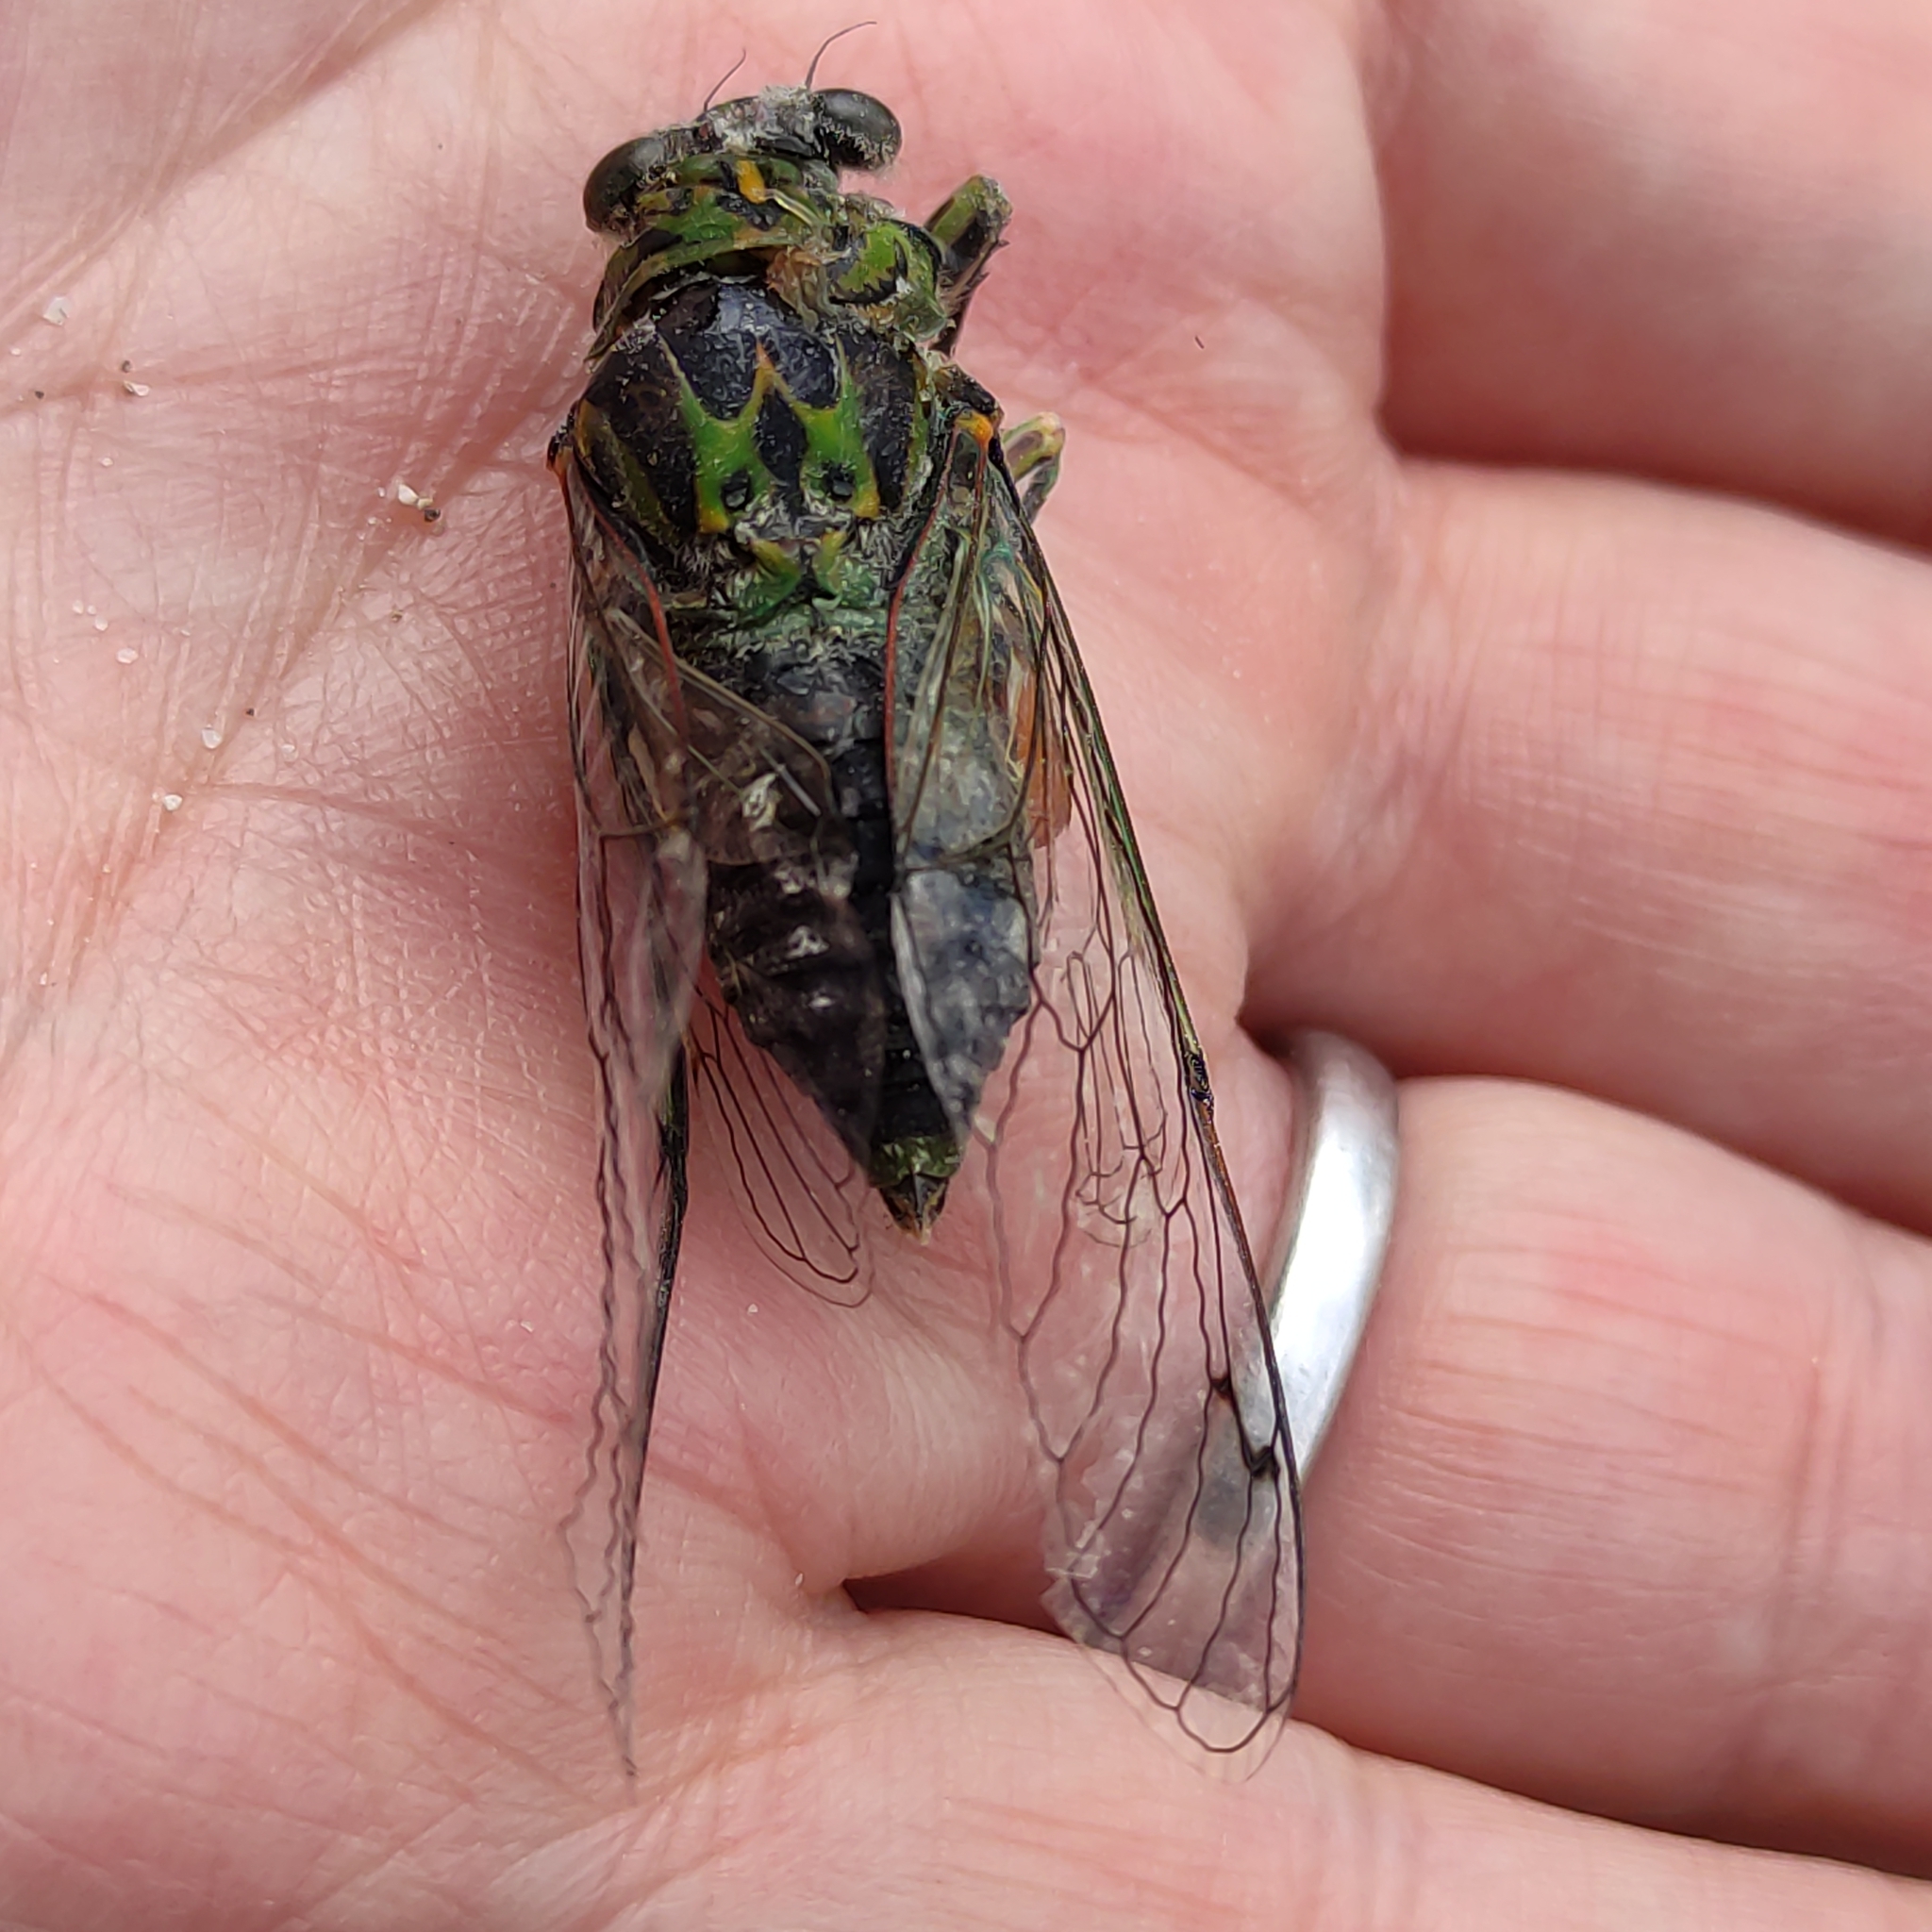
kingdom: Animalia
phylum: Arthropoda
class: Insecta
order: Hemiptera
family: Cicadidae
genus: Amphipsalta
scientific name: Amphipsalta zelandica
